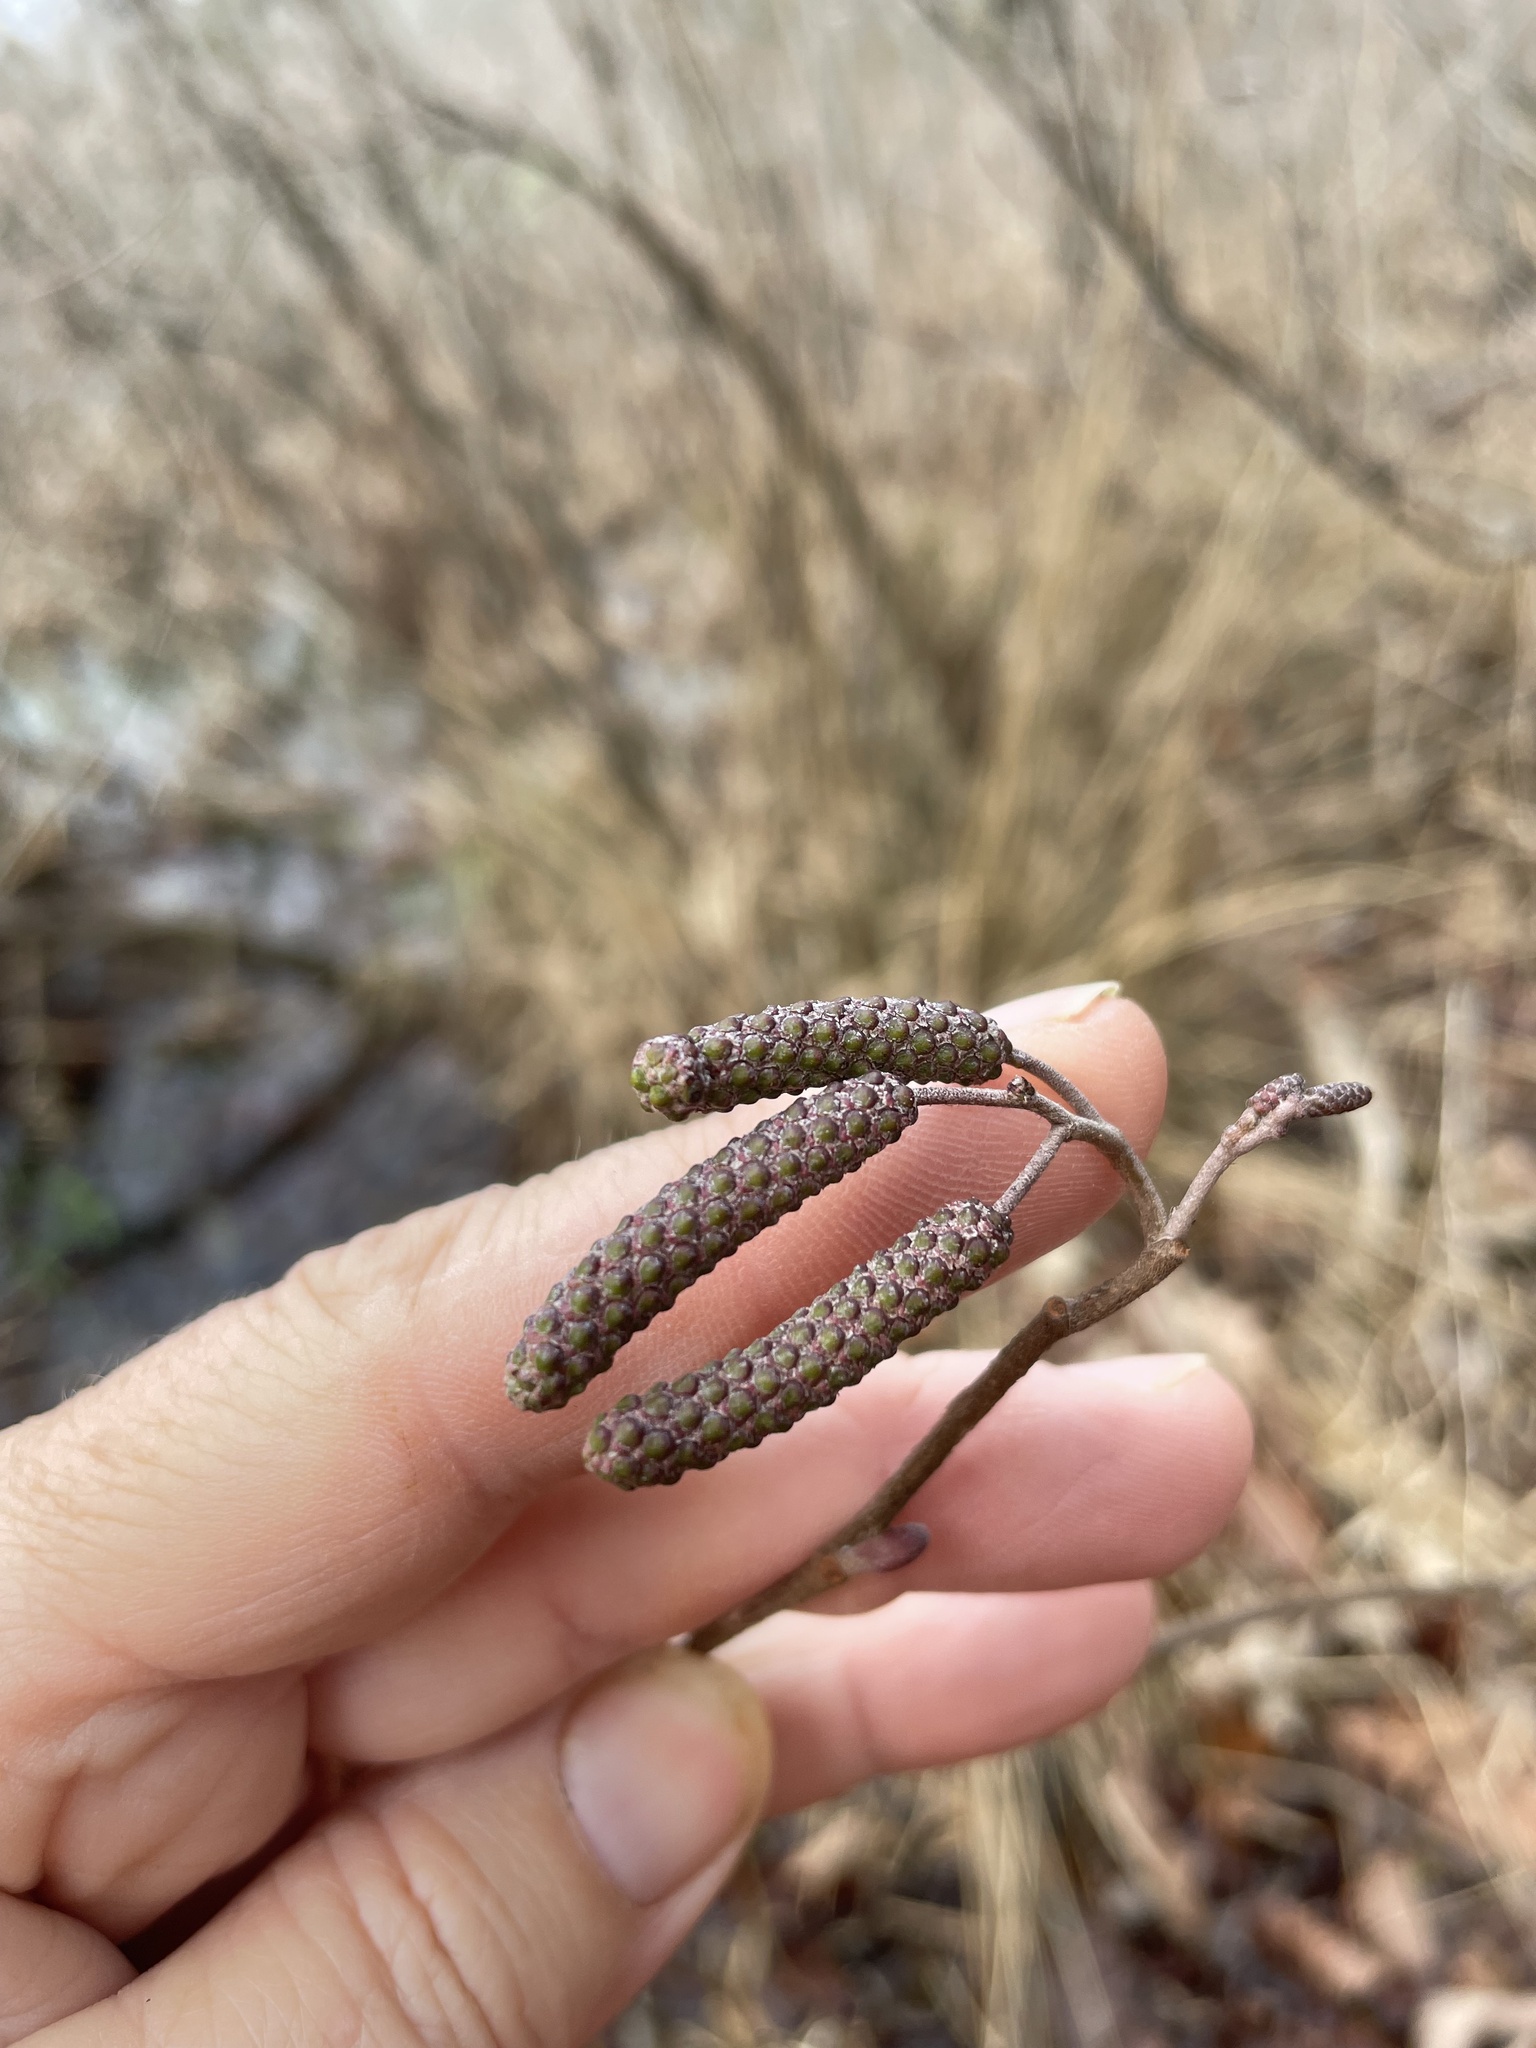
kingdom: Plantae
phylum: Tracheophyta
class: Magnoliopsida
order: Fagales
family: Betulaceae
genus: Alnus
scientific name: Alnus serrulata
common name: Hazel alder
